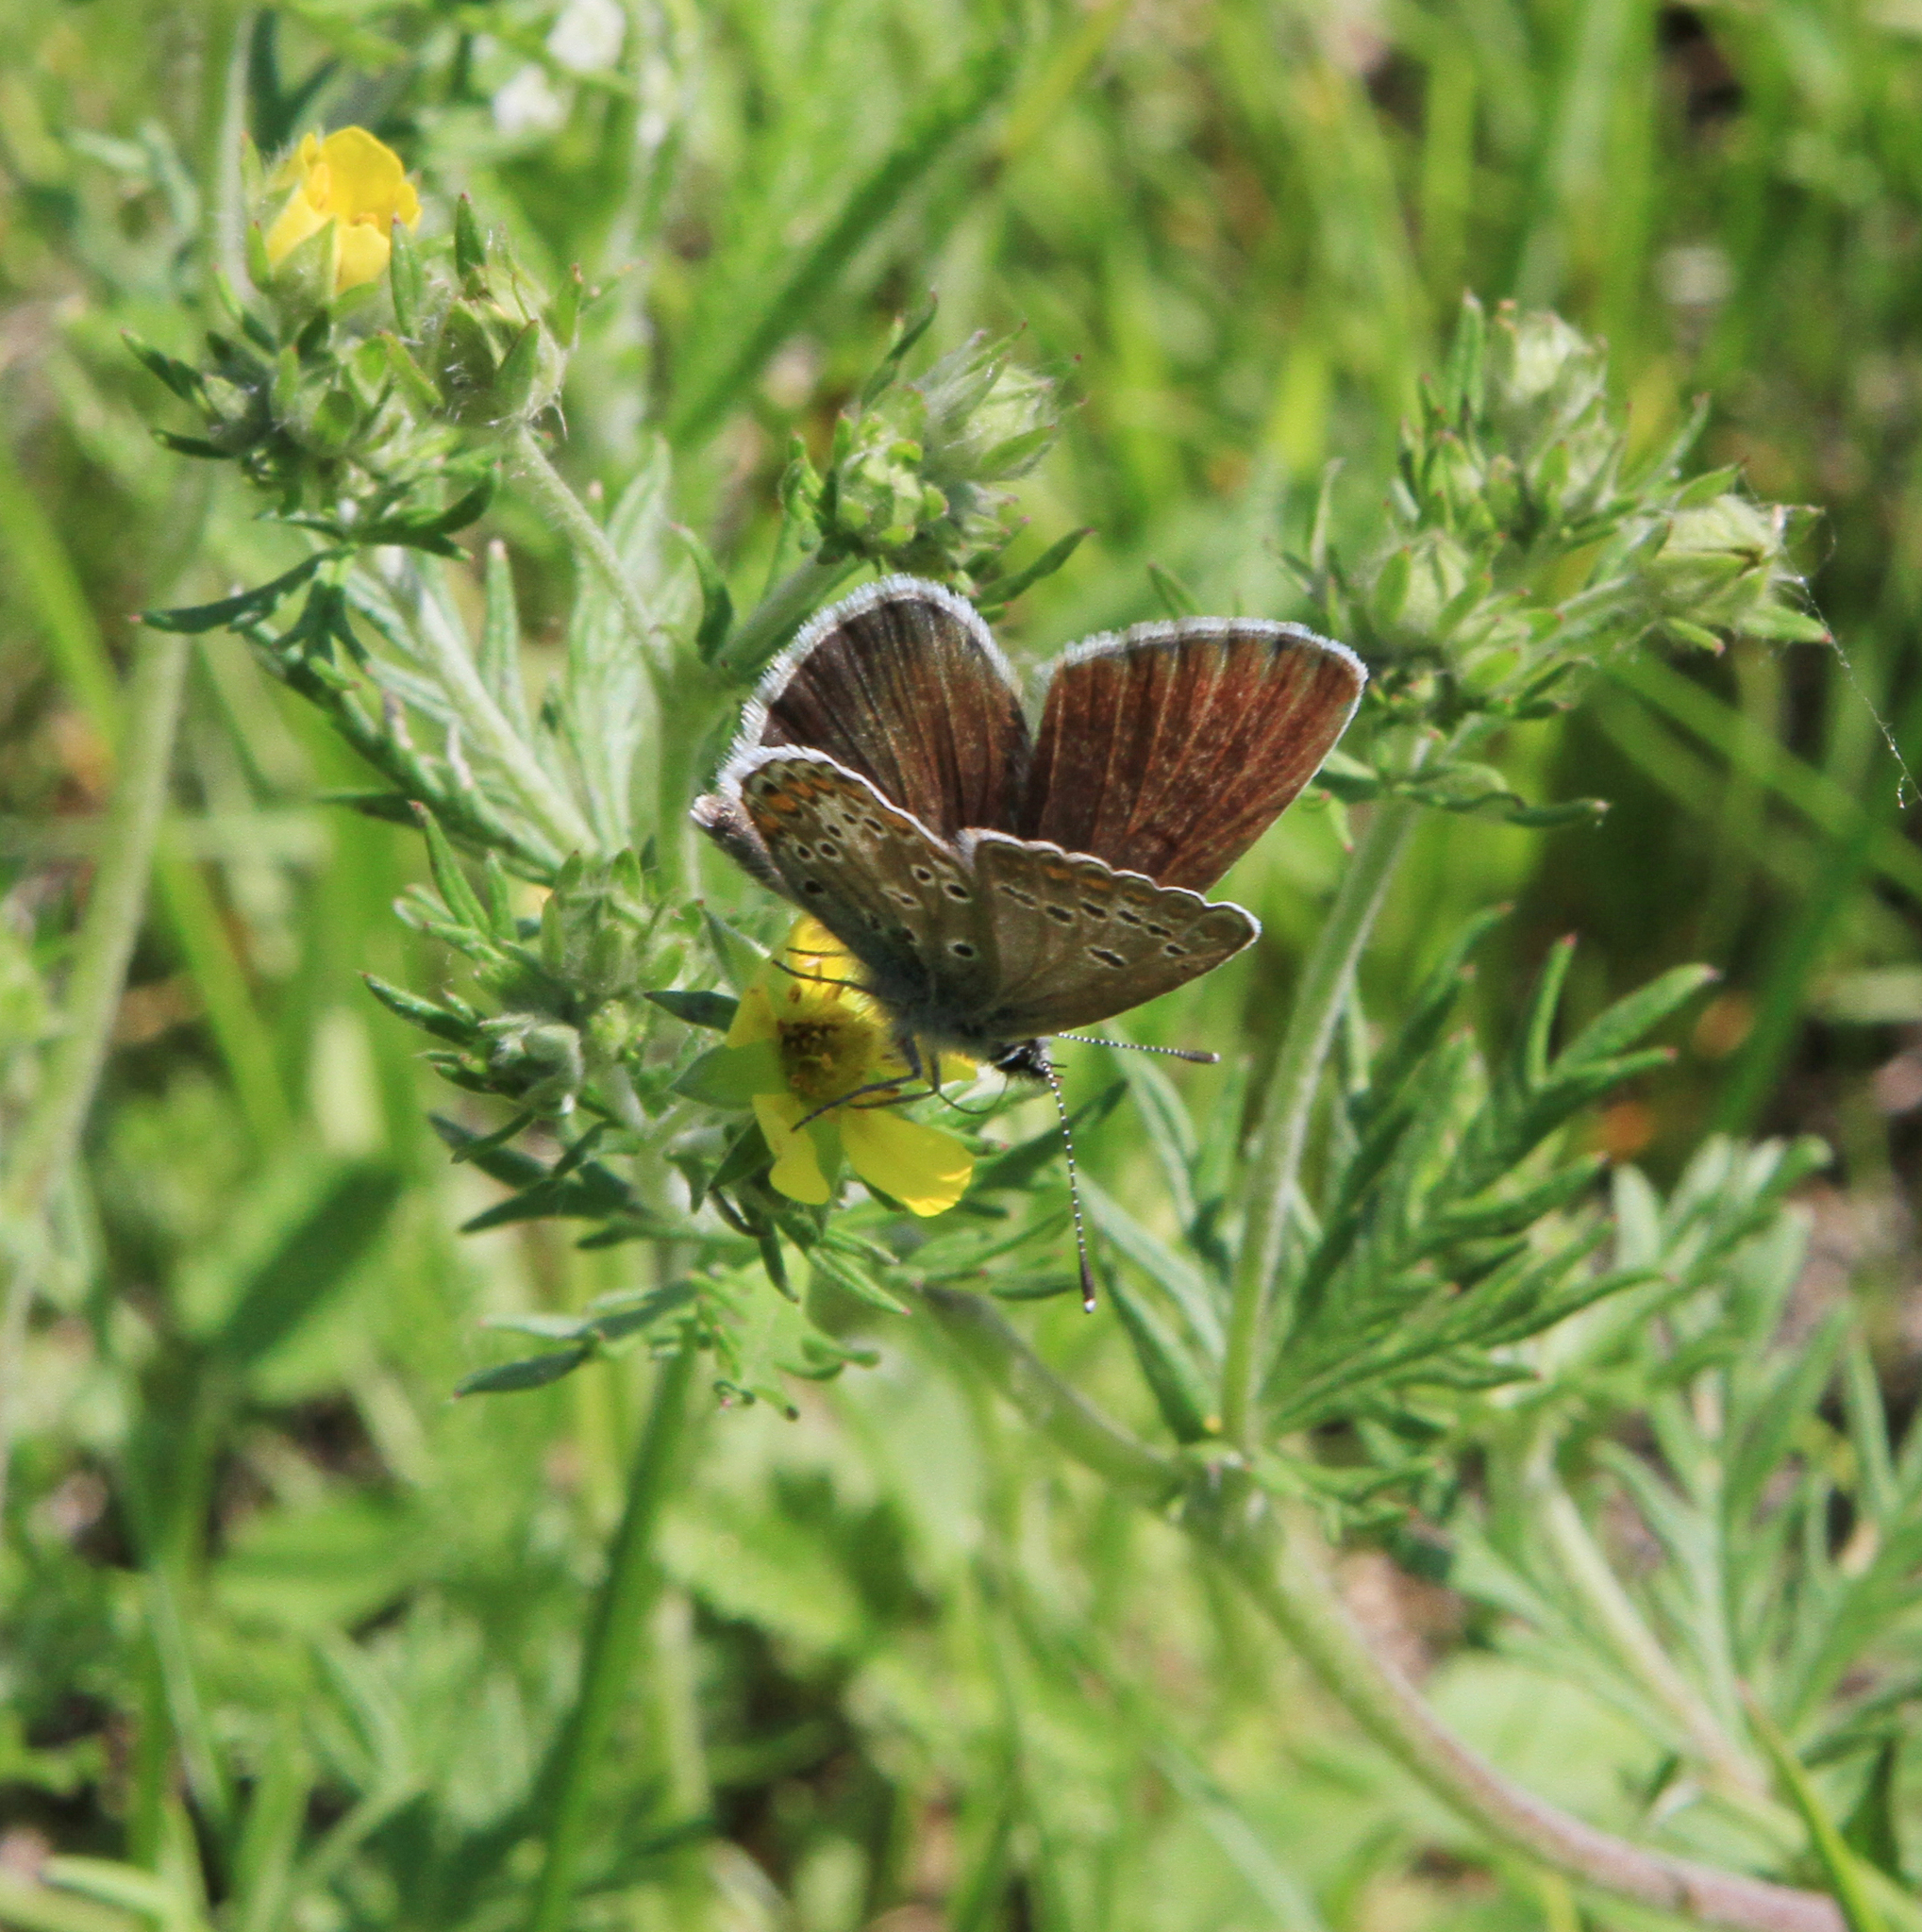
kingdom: Animalia
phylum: Arthropoda
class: Insecta
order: Lepidoptera
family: Lycaenidae
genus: Aricia
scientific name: Aricia artaxerxes
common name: Northern brown argus
